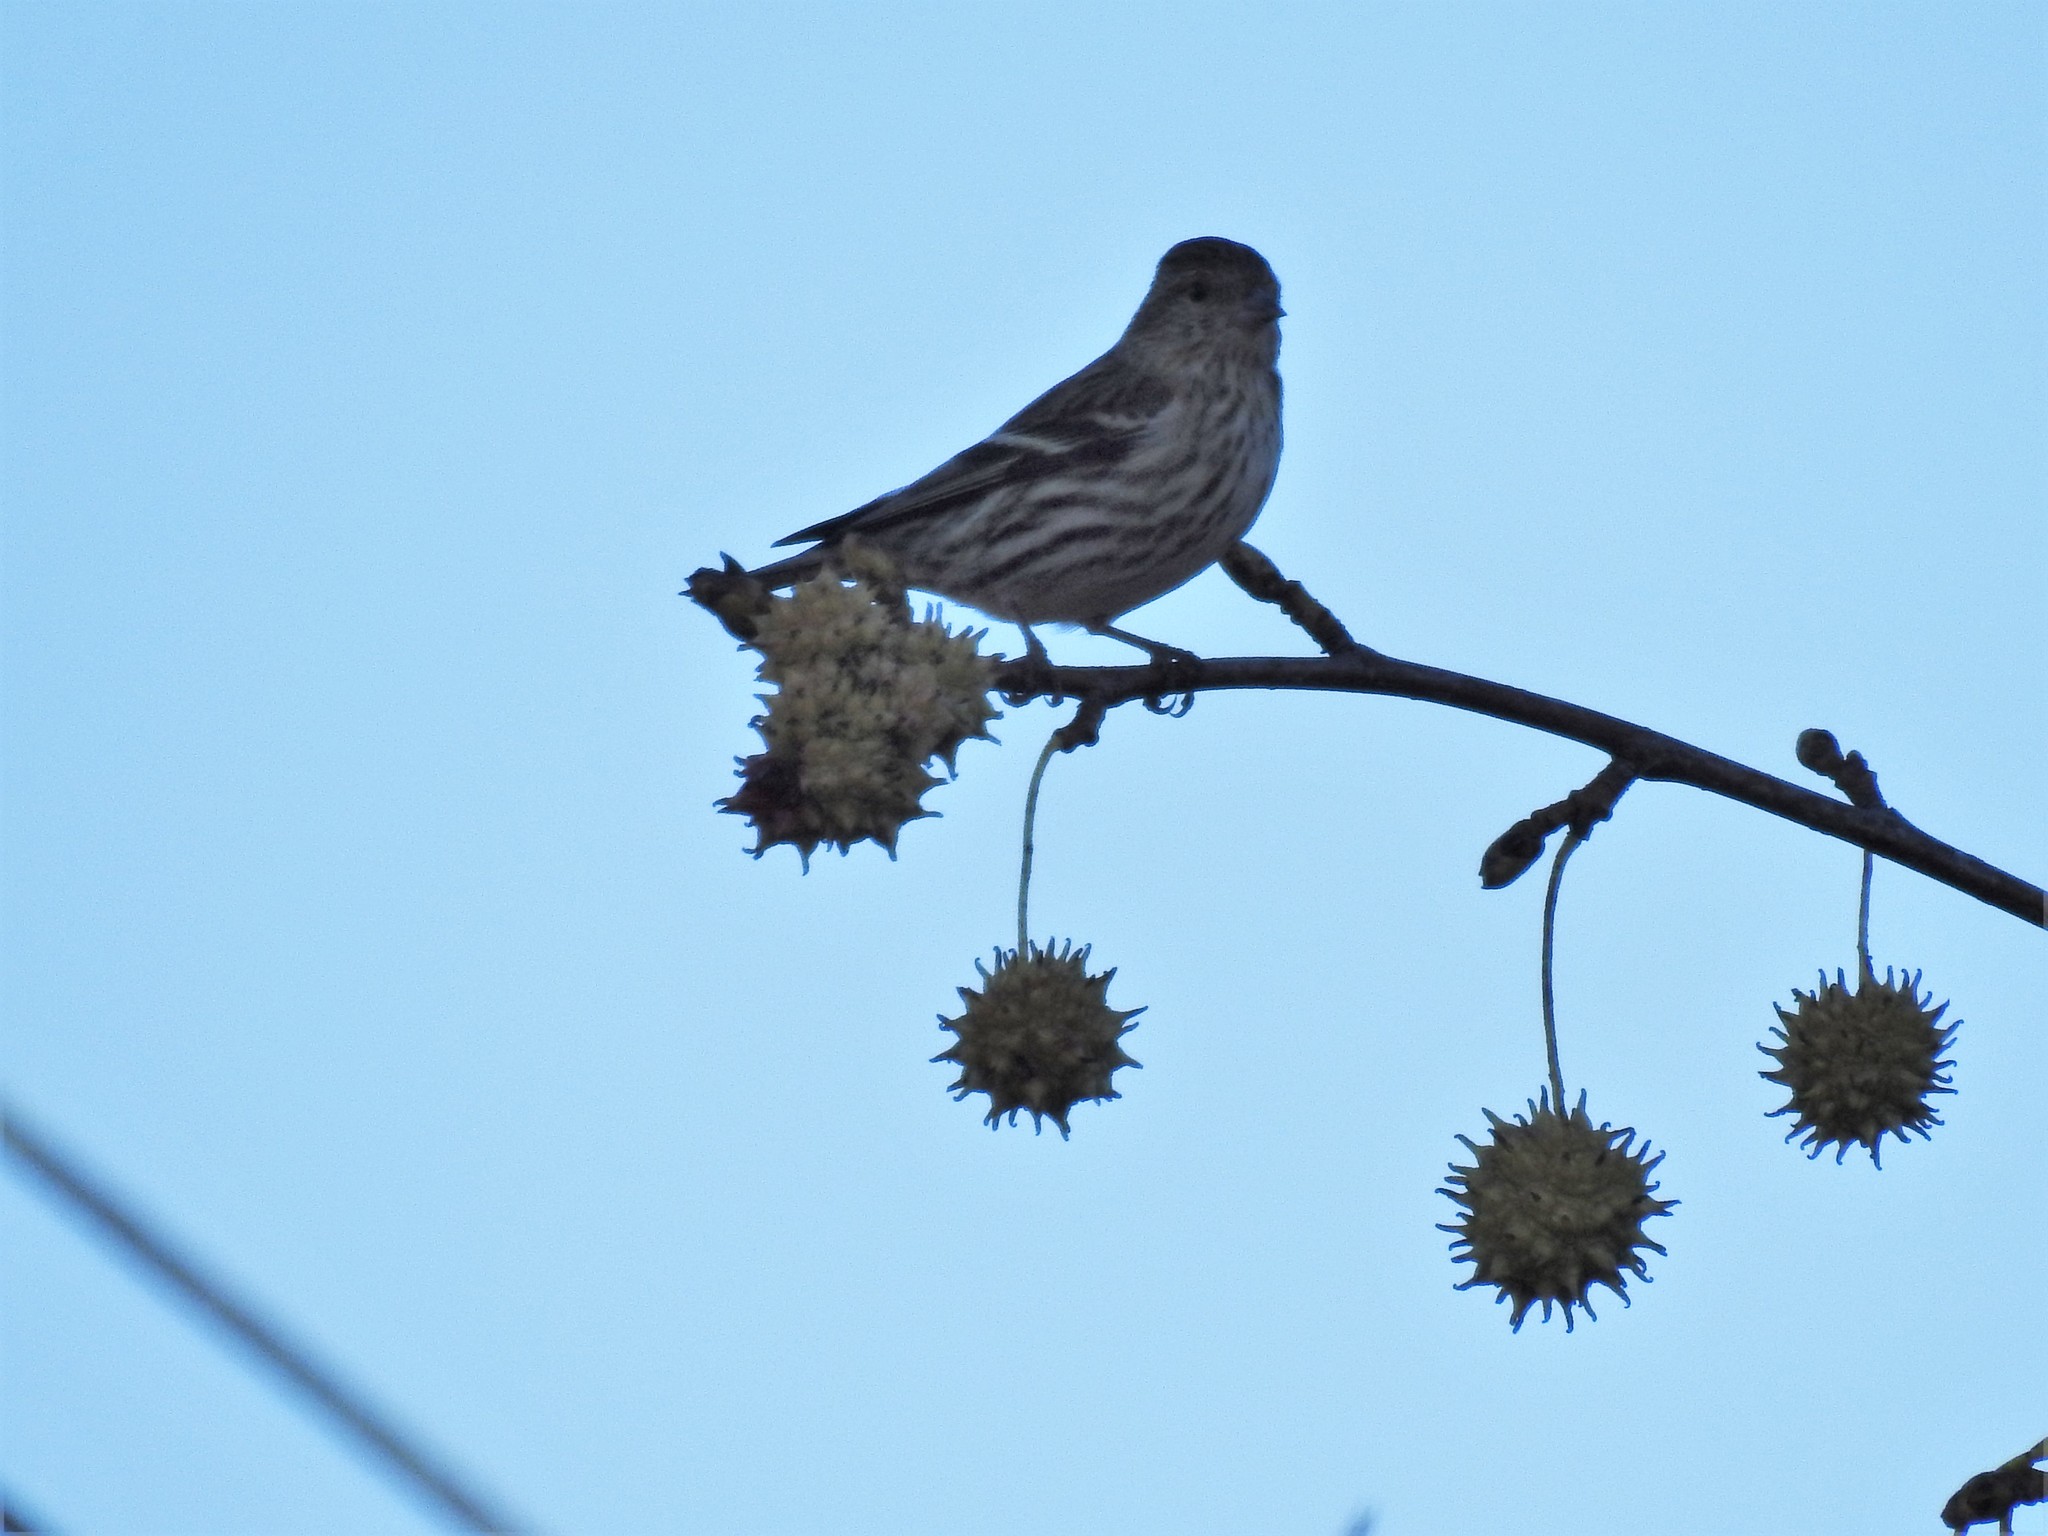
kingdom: Animalia
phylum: Chordata
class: Aves
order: Passeriformes
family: Fringillidae
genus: Spinus
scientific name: Spinus pinus
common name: Pine siskin
